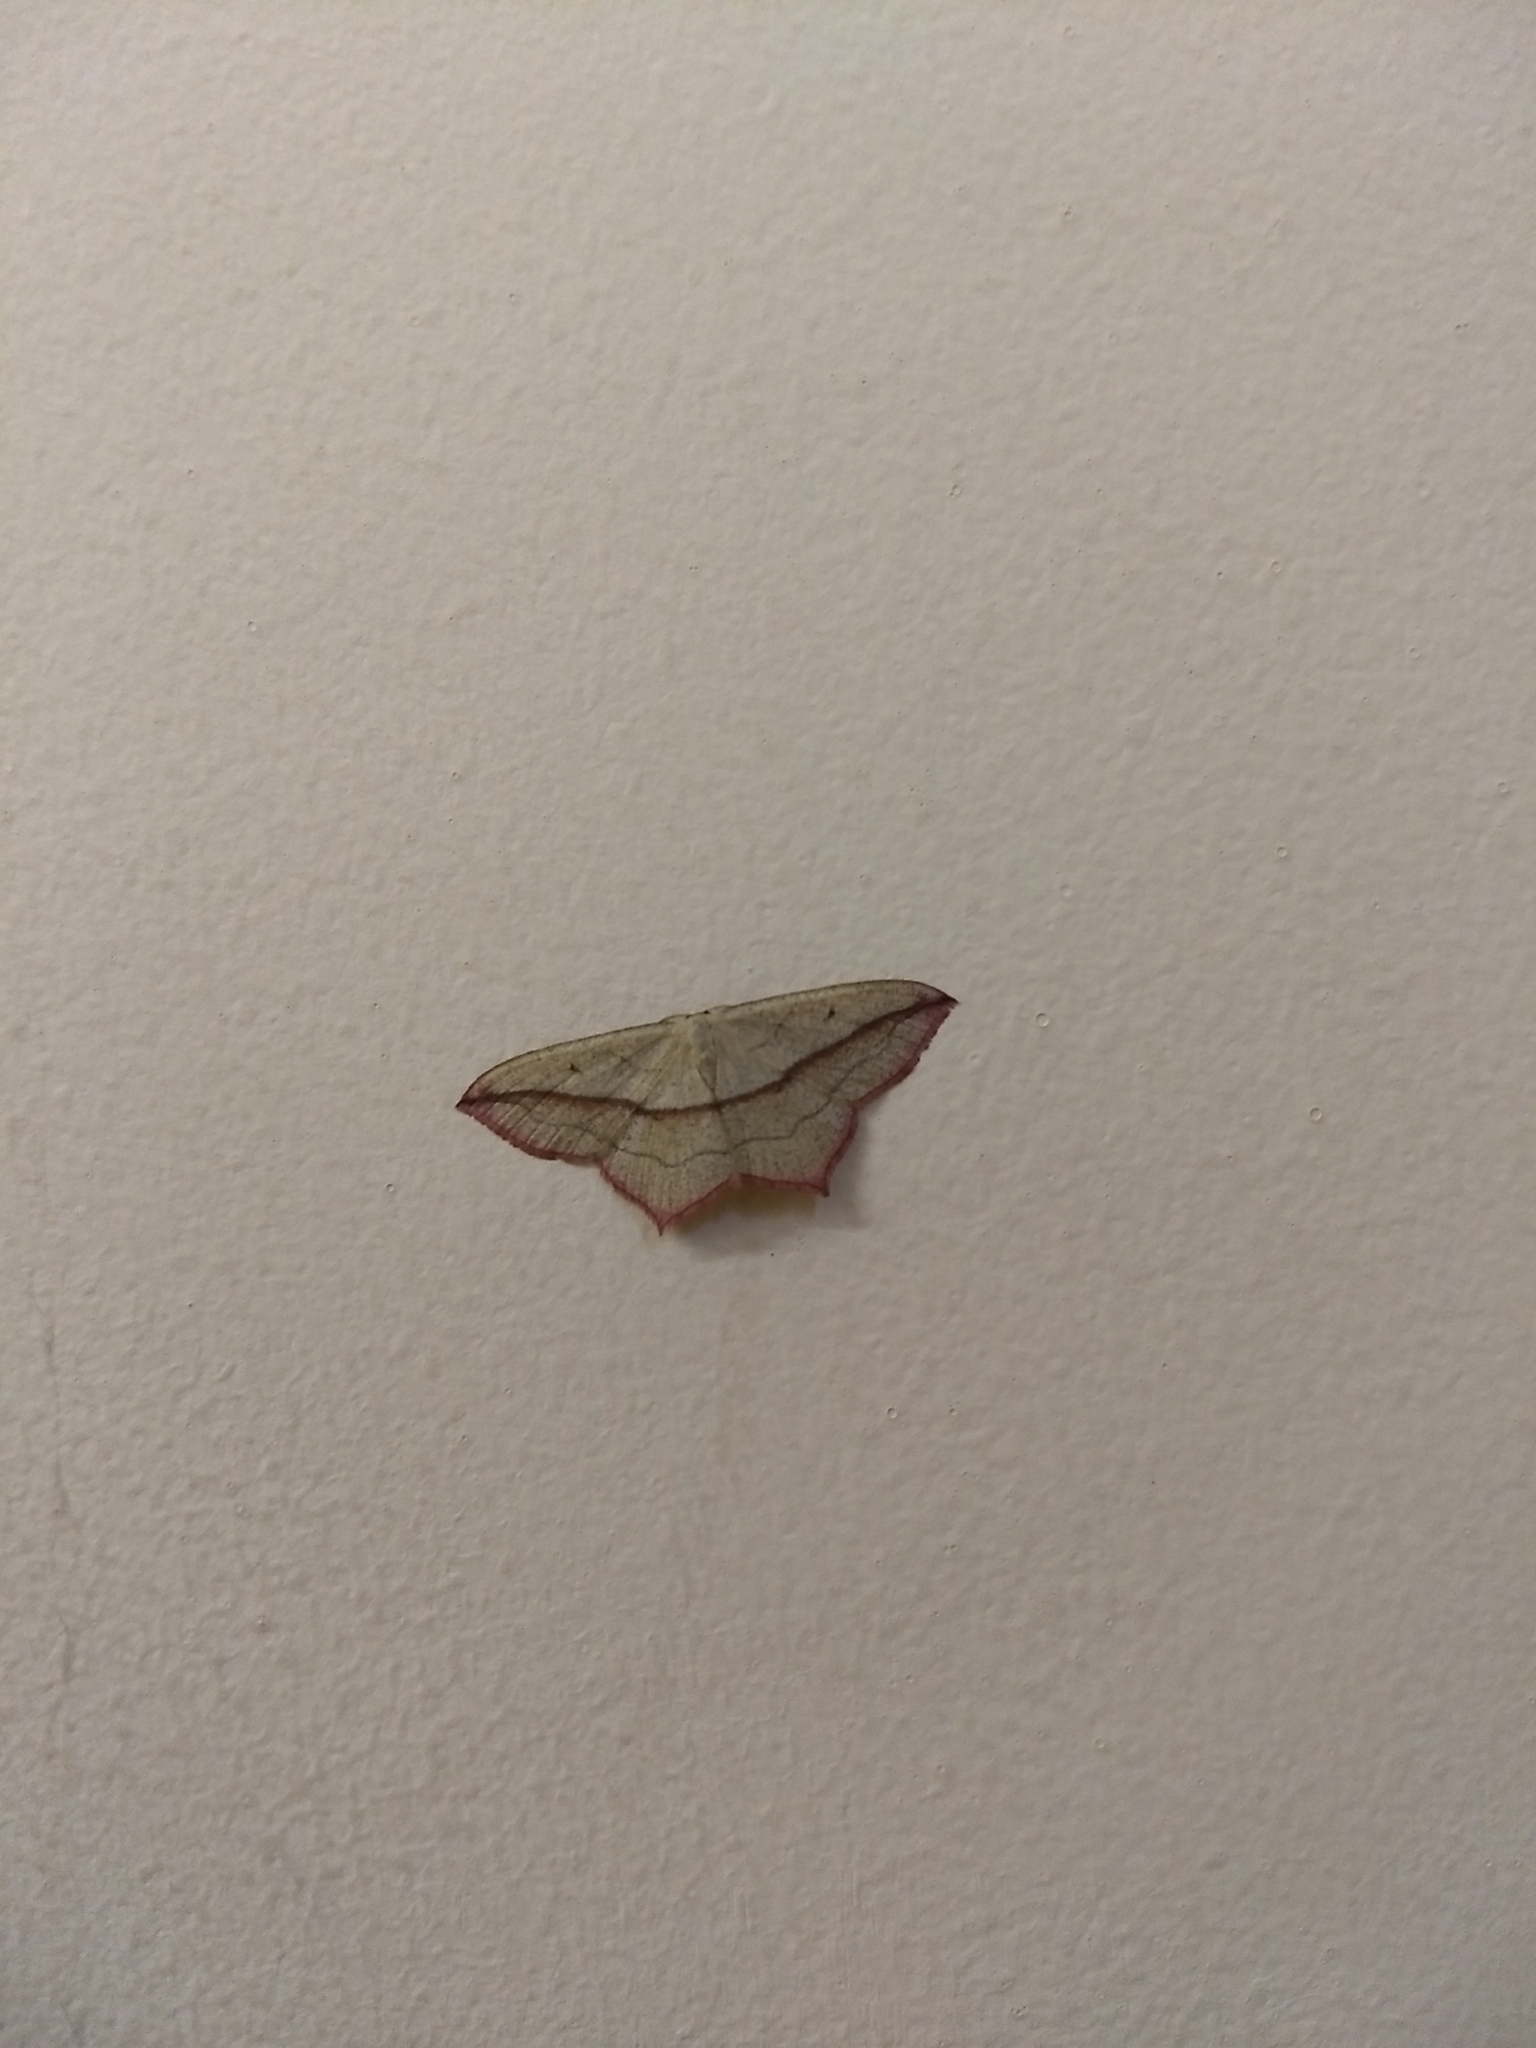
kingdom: Animalia
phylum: Arthropoda
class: Insecta
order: Lepidoptera
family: Geometridae
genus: Timandra
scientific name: Timandra comae
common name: Blood-vein
